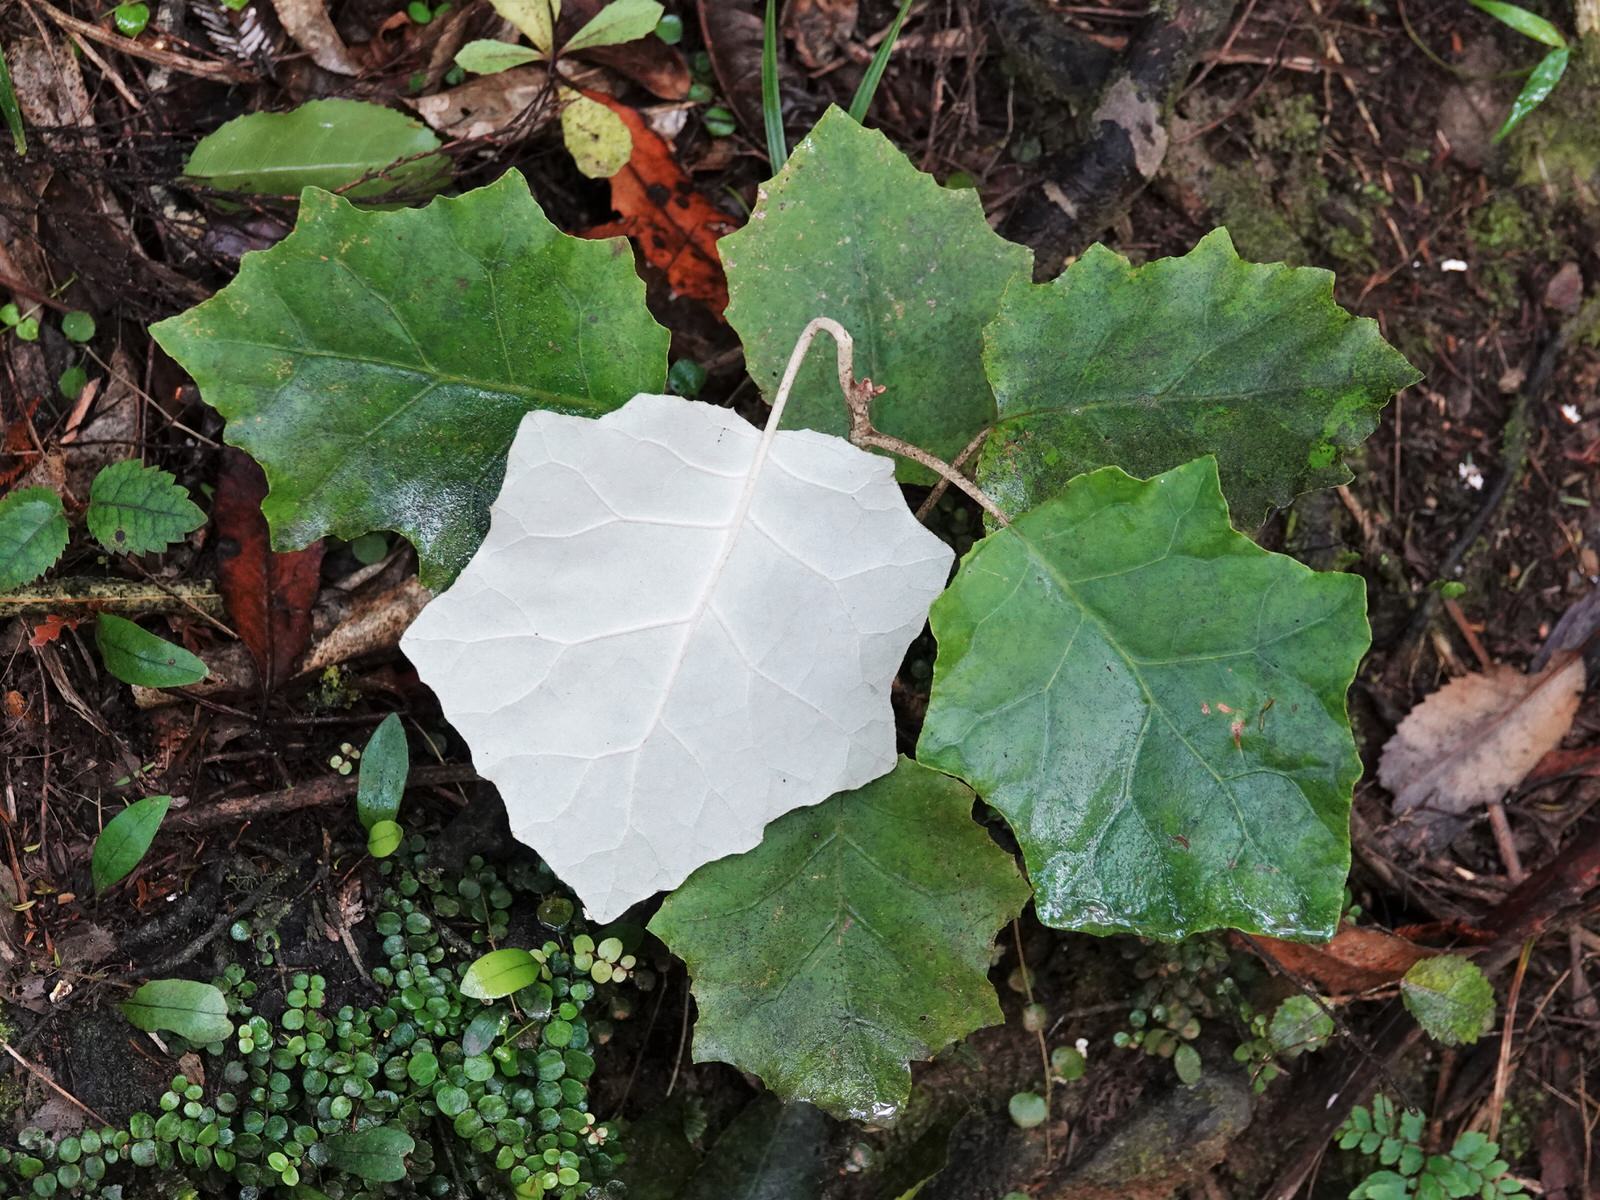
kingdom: Plantae
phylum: Tracheophyta
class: Magnoliopsida
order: Asterales
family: Asteraceae
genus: Brachyglottis
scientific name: Brachyglottis repanda
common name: Hedge ragwort
